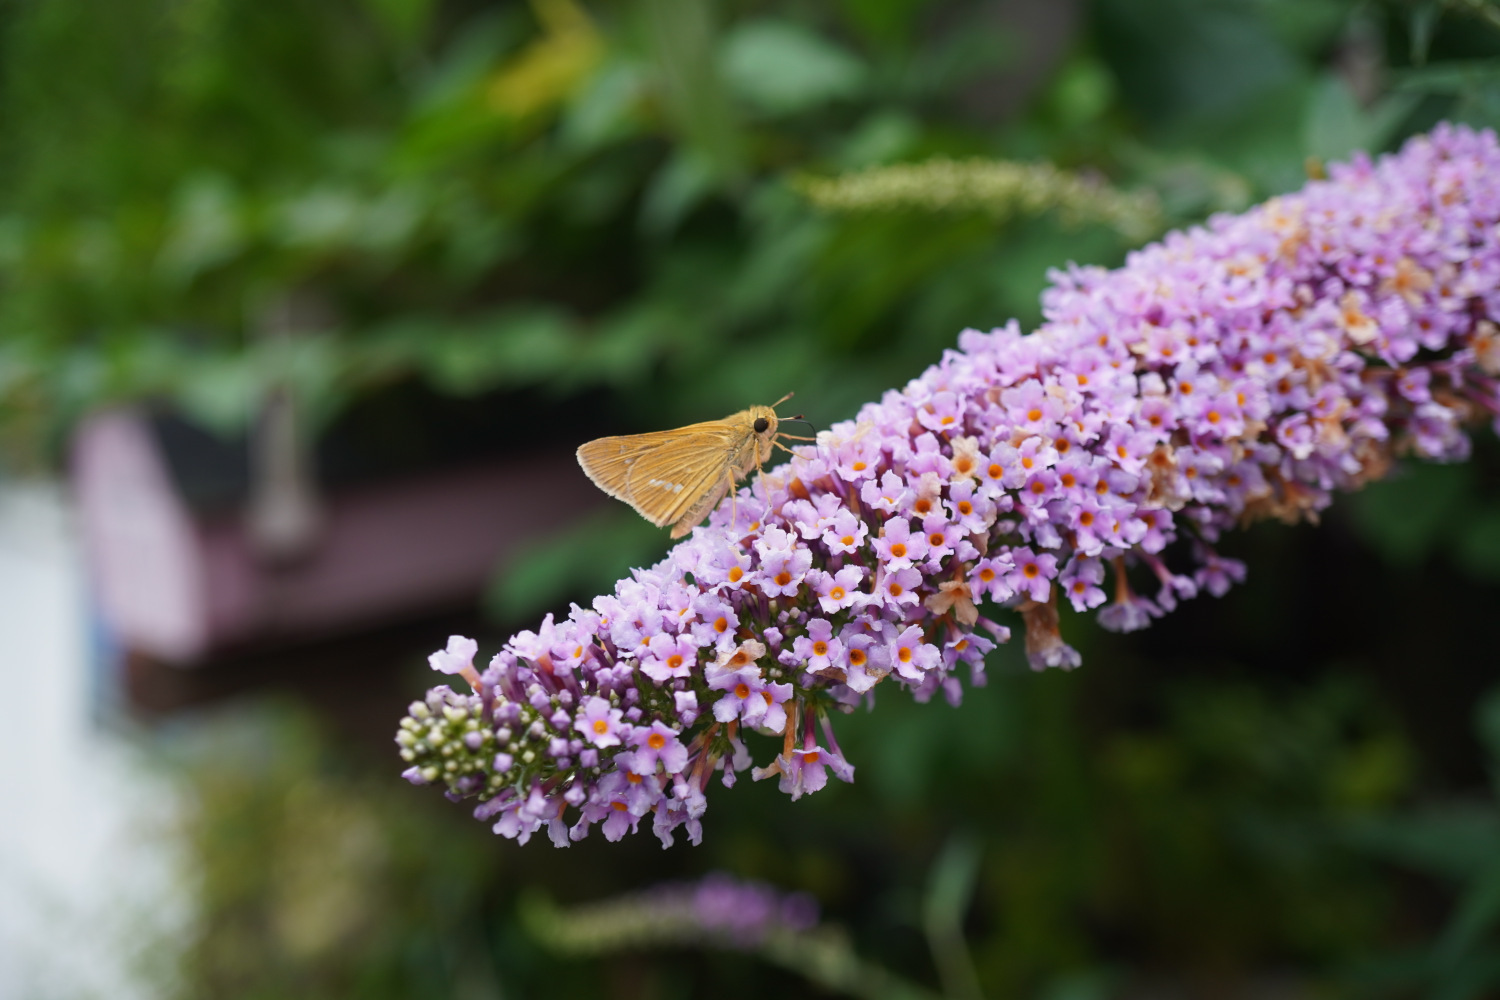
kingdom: Animalia
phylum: Arthropoda
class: Insecta
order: Lepidoptera
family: Hesperiidae
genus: Parnara
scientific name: Parnara guttatus
